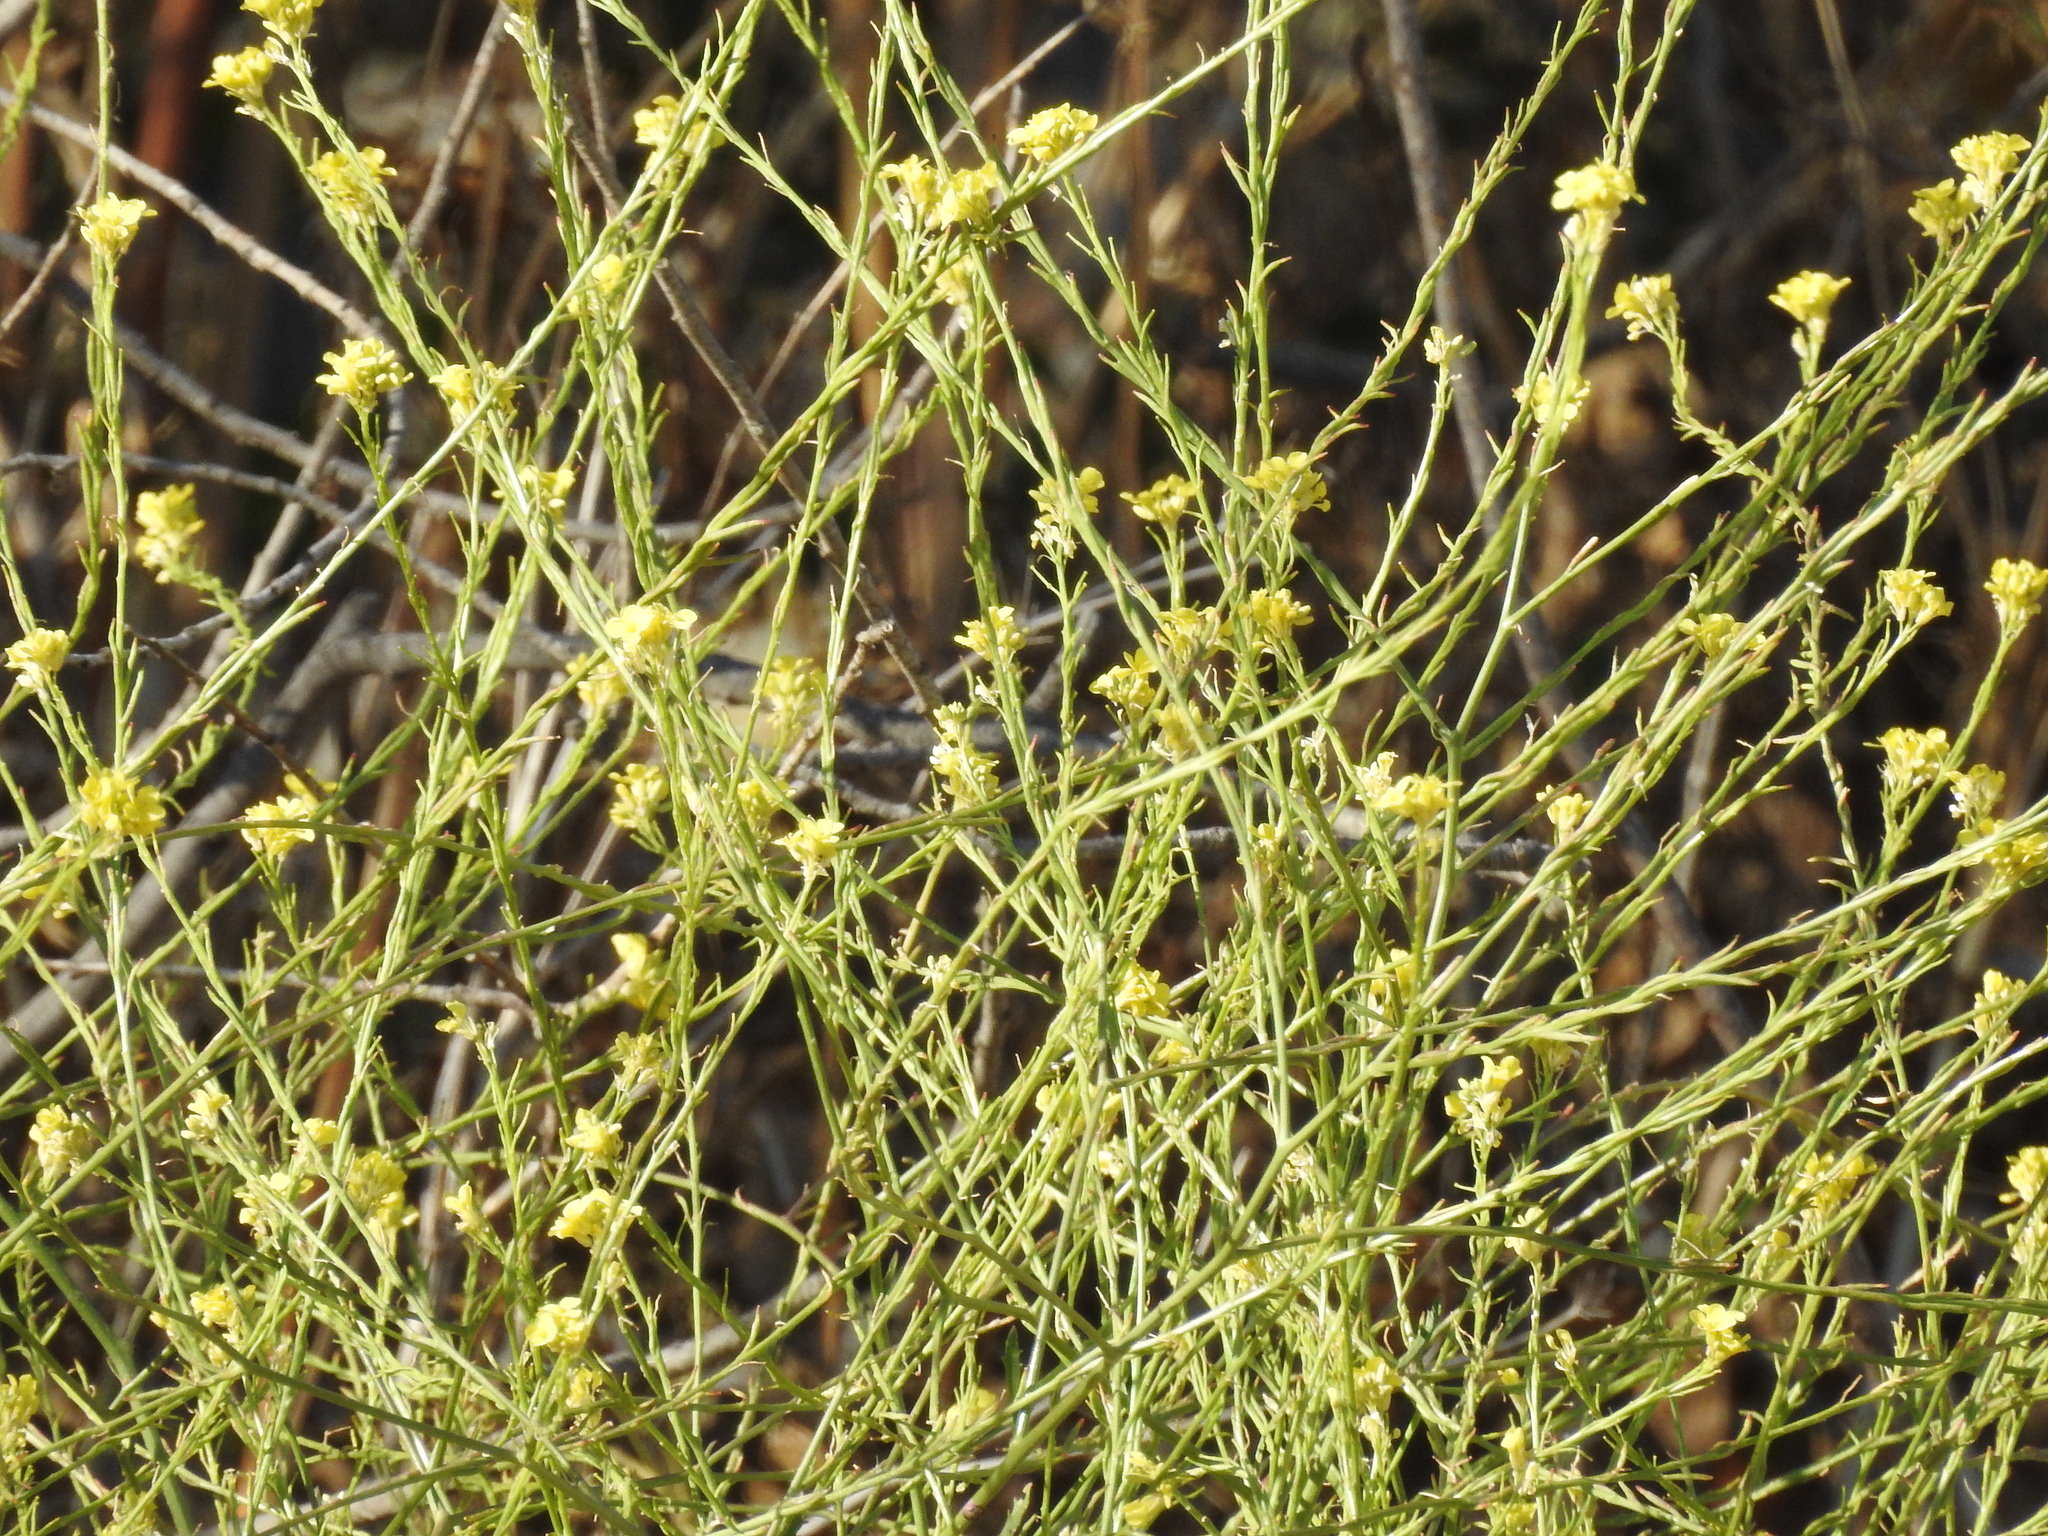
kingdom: Plantae
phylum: Tracheophyta
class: Magnoliopsida
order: Brassicales
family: Brassicaceae
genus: Hirschfeldia
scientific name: Hirschfeldia incana
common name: Hoary mustard
